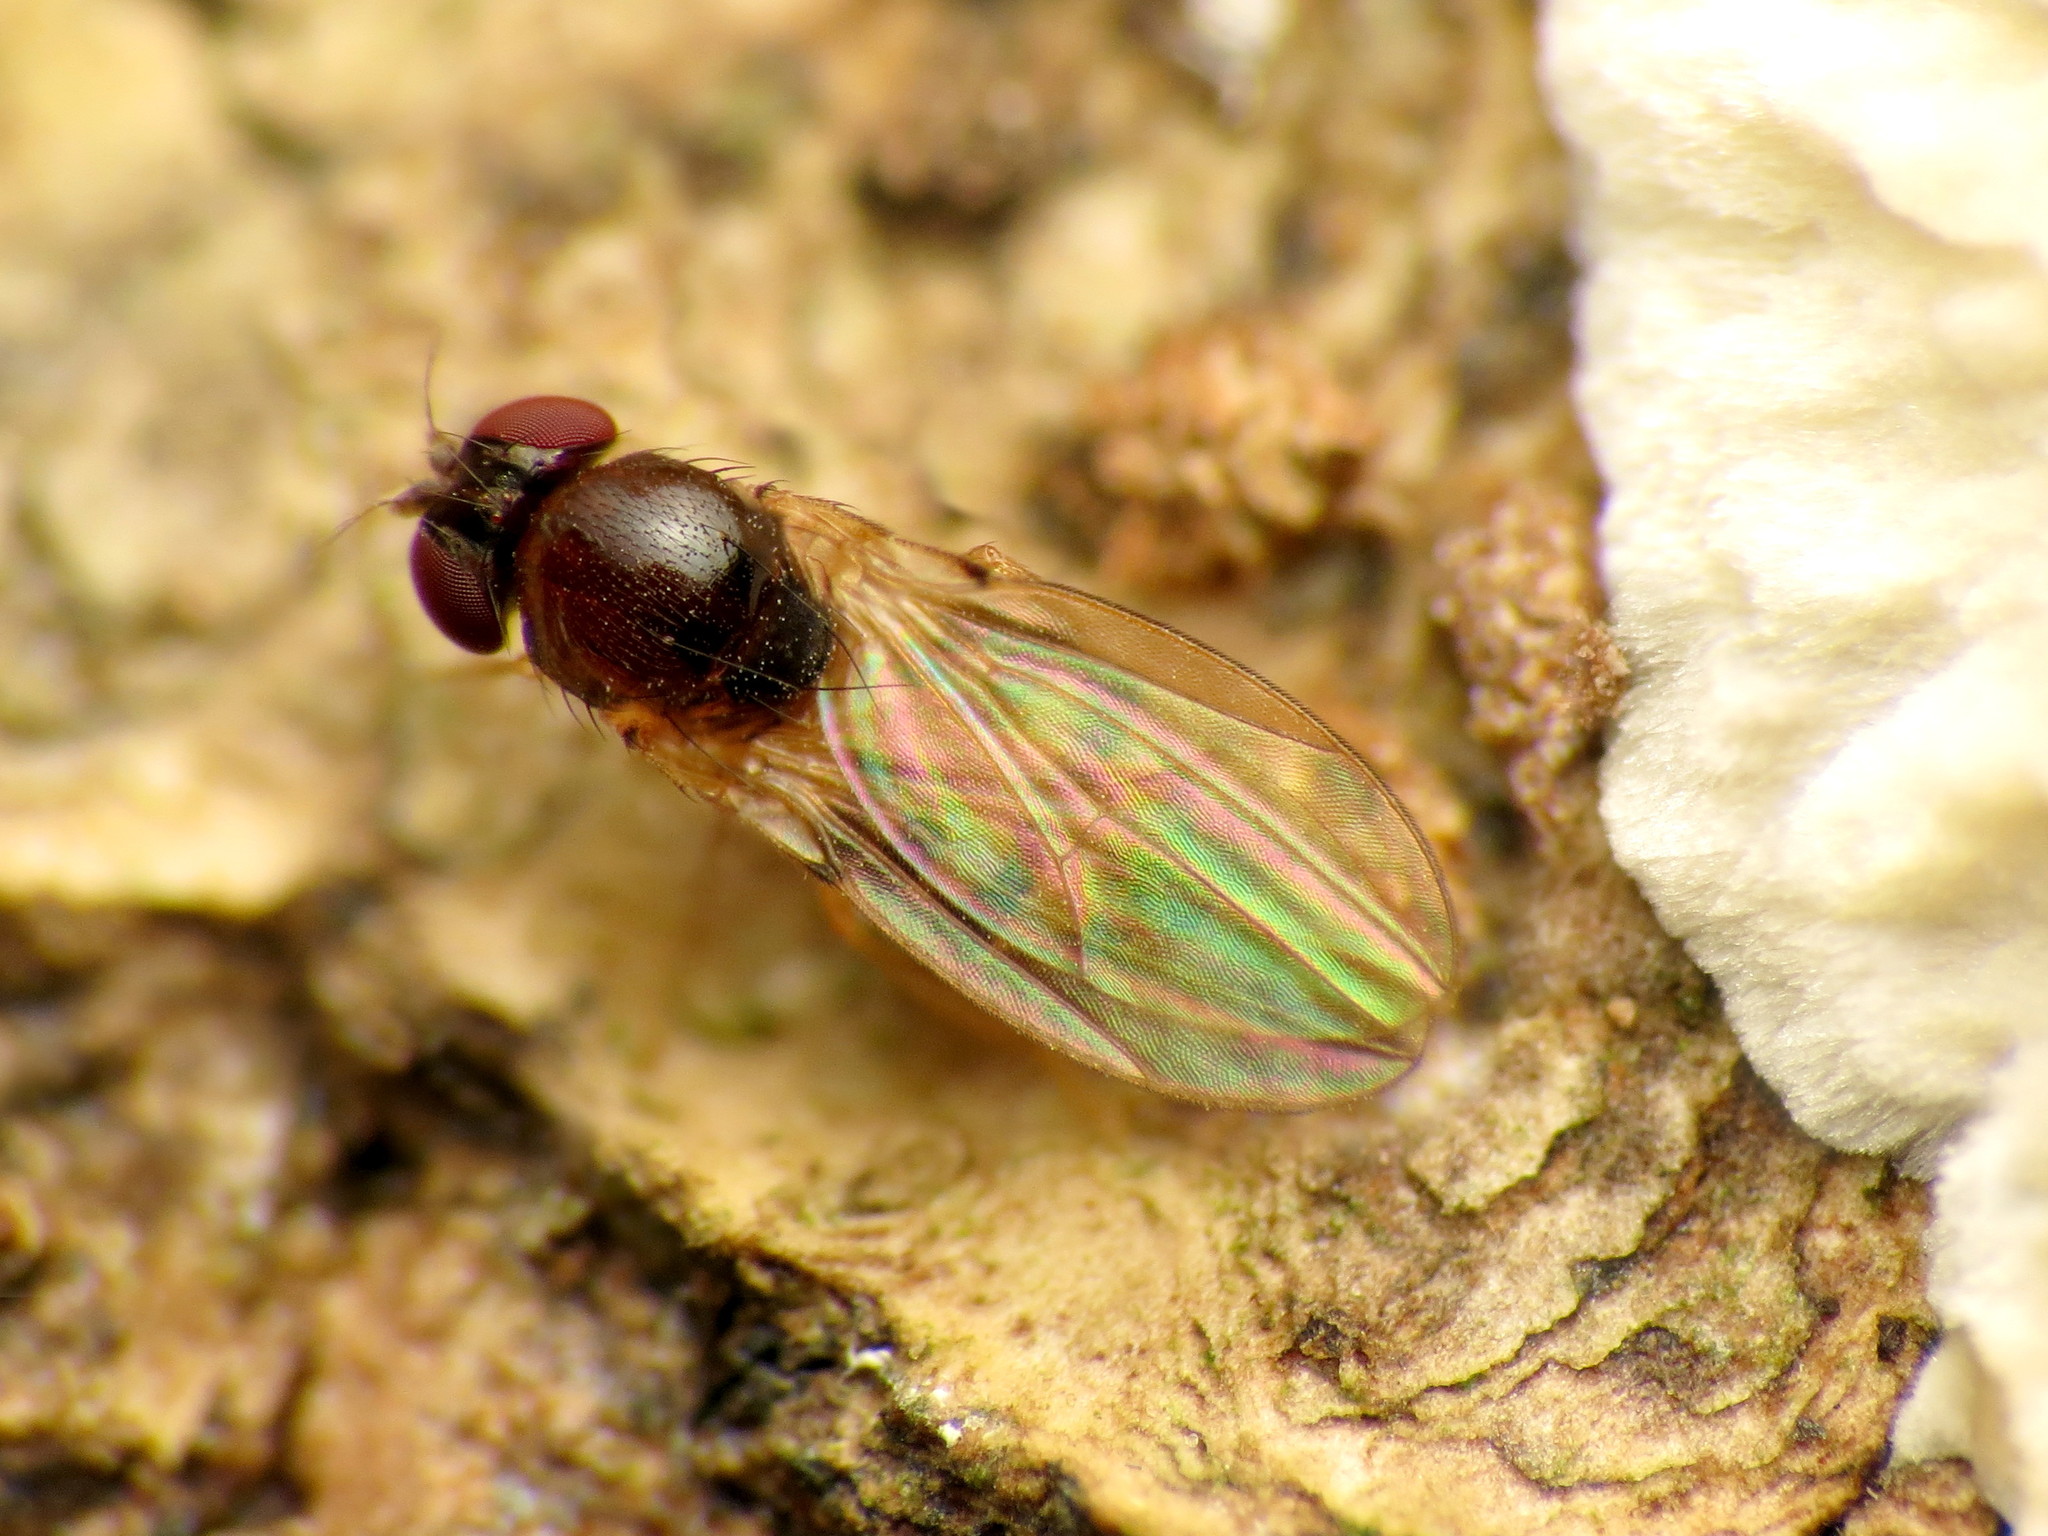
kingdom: Animalia
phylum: Arthropoda
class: Insecta
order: Diptera
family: Drosophilidae
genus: Mycodrosophila
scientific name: Mycodrosophila dimidiata
